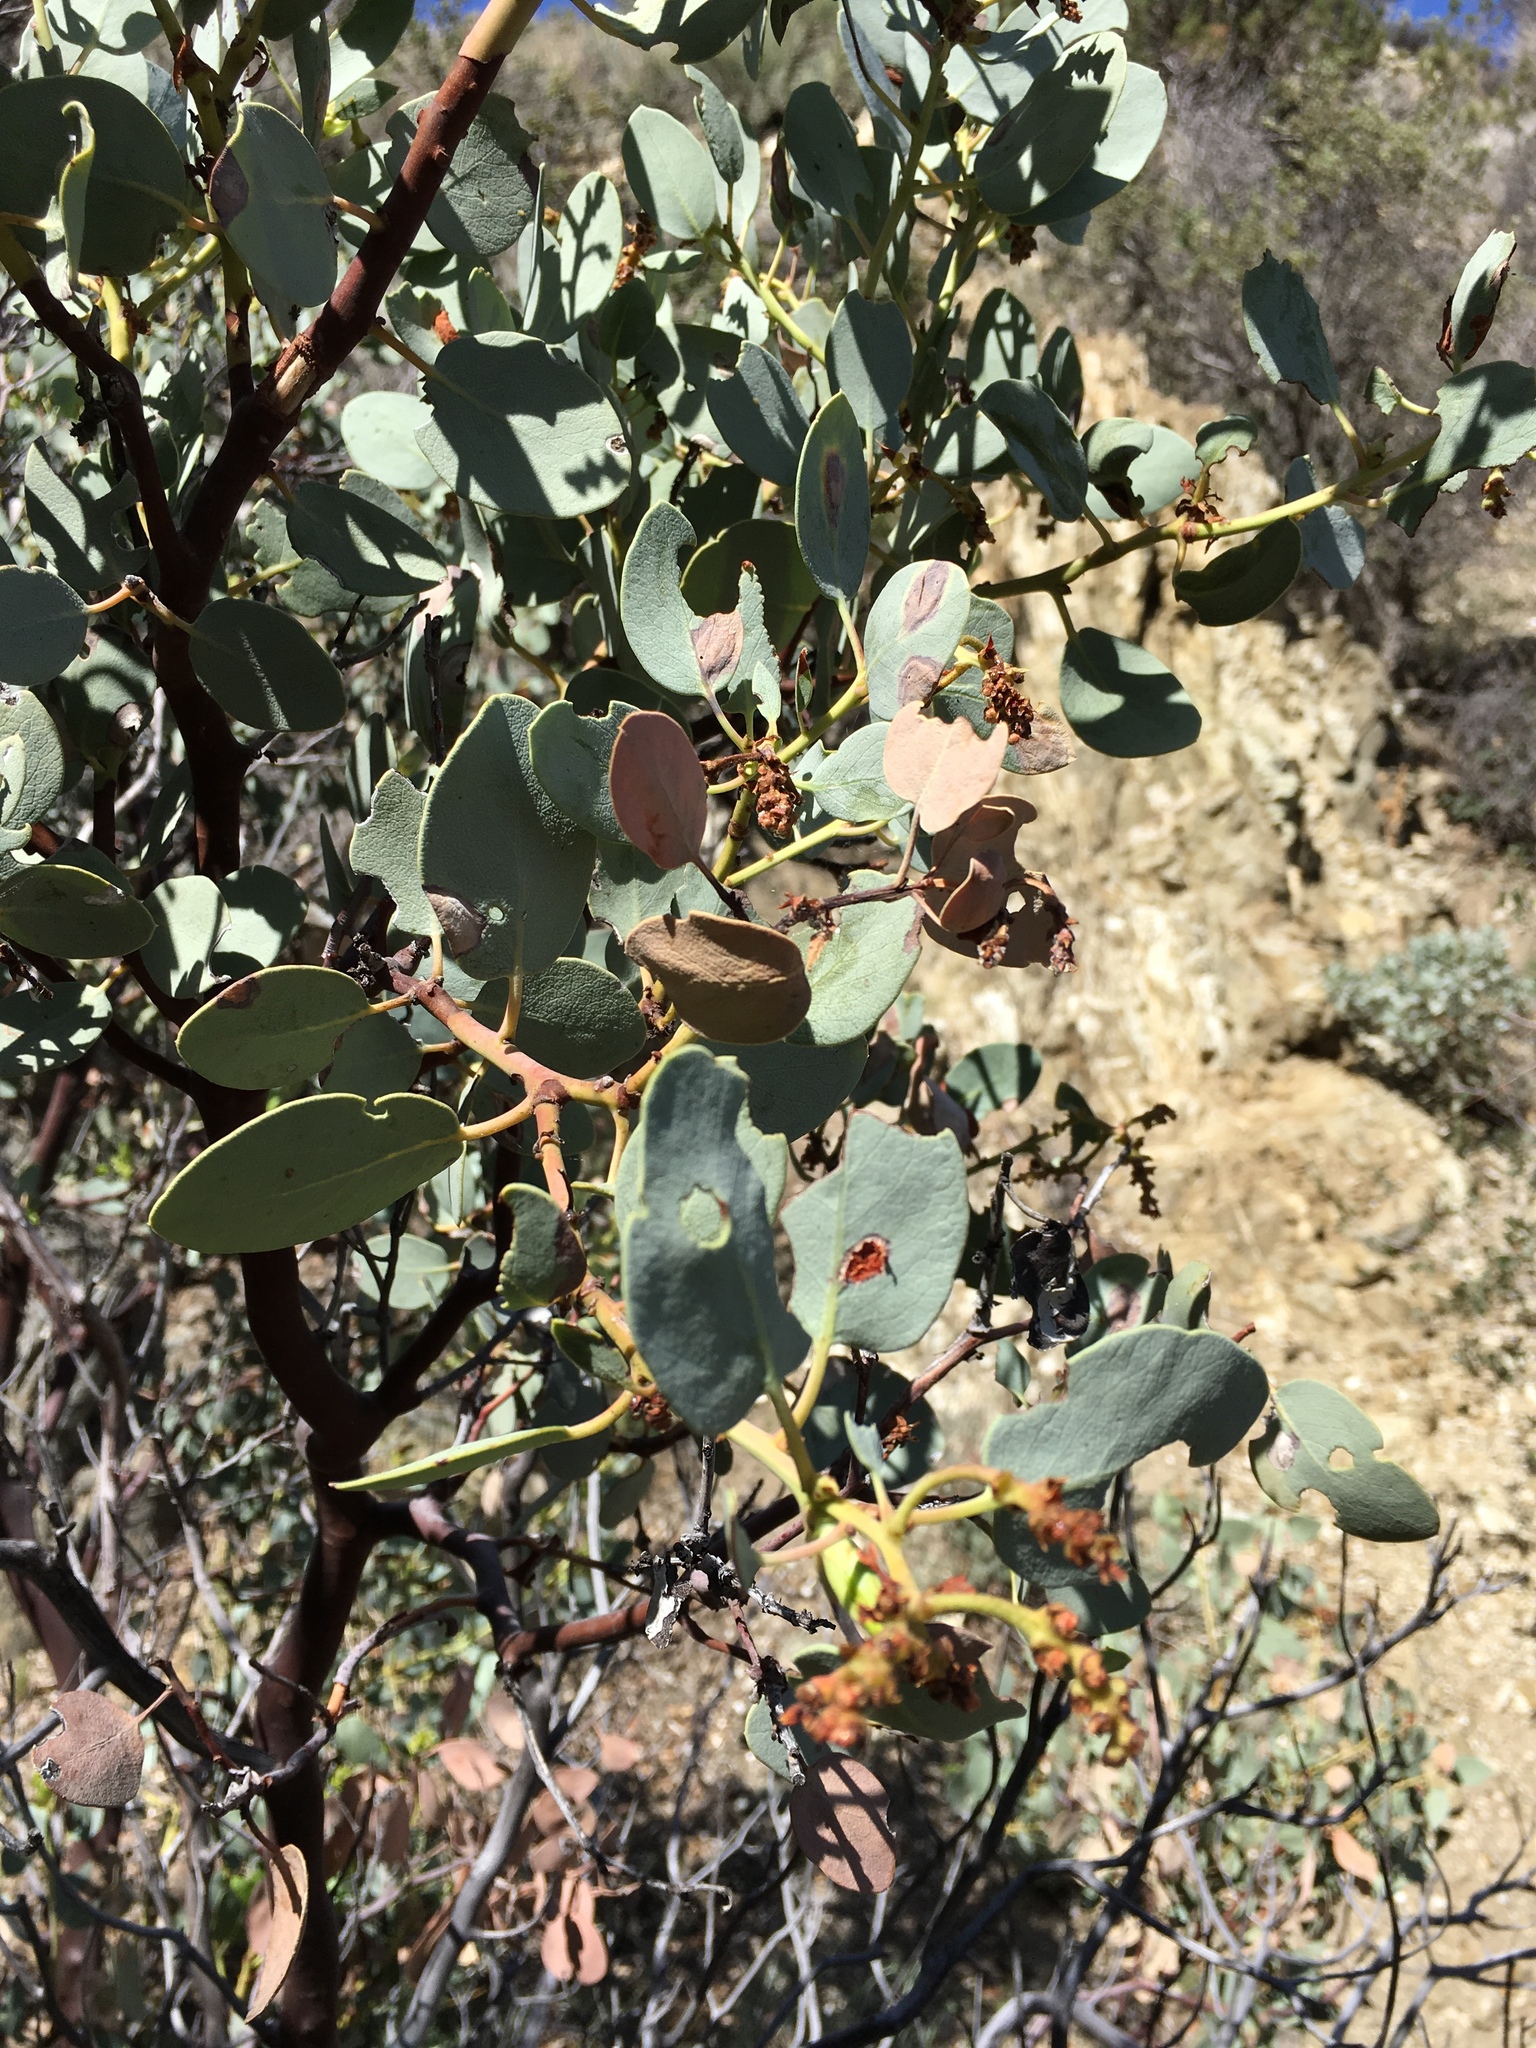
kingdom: Plantae
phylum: Tracheophyta
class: Magnoliopsida
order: Ericales
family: Ericaceae
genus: Arctostaphylos
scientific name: Arctostaphylos glauca
